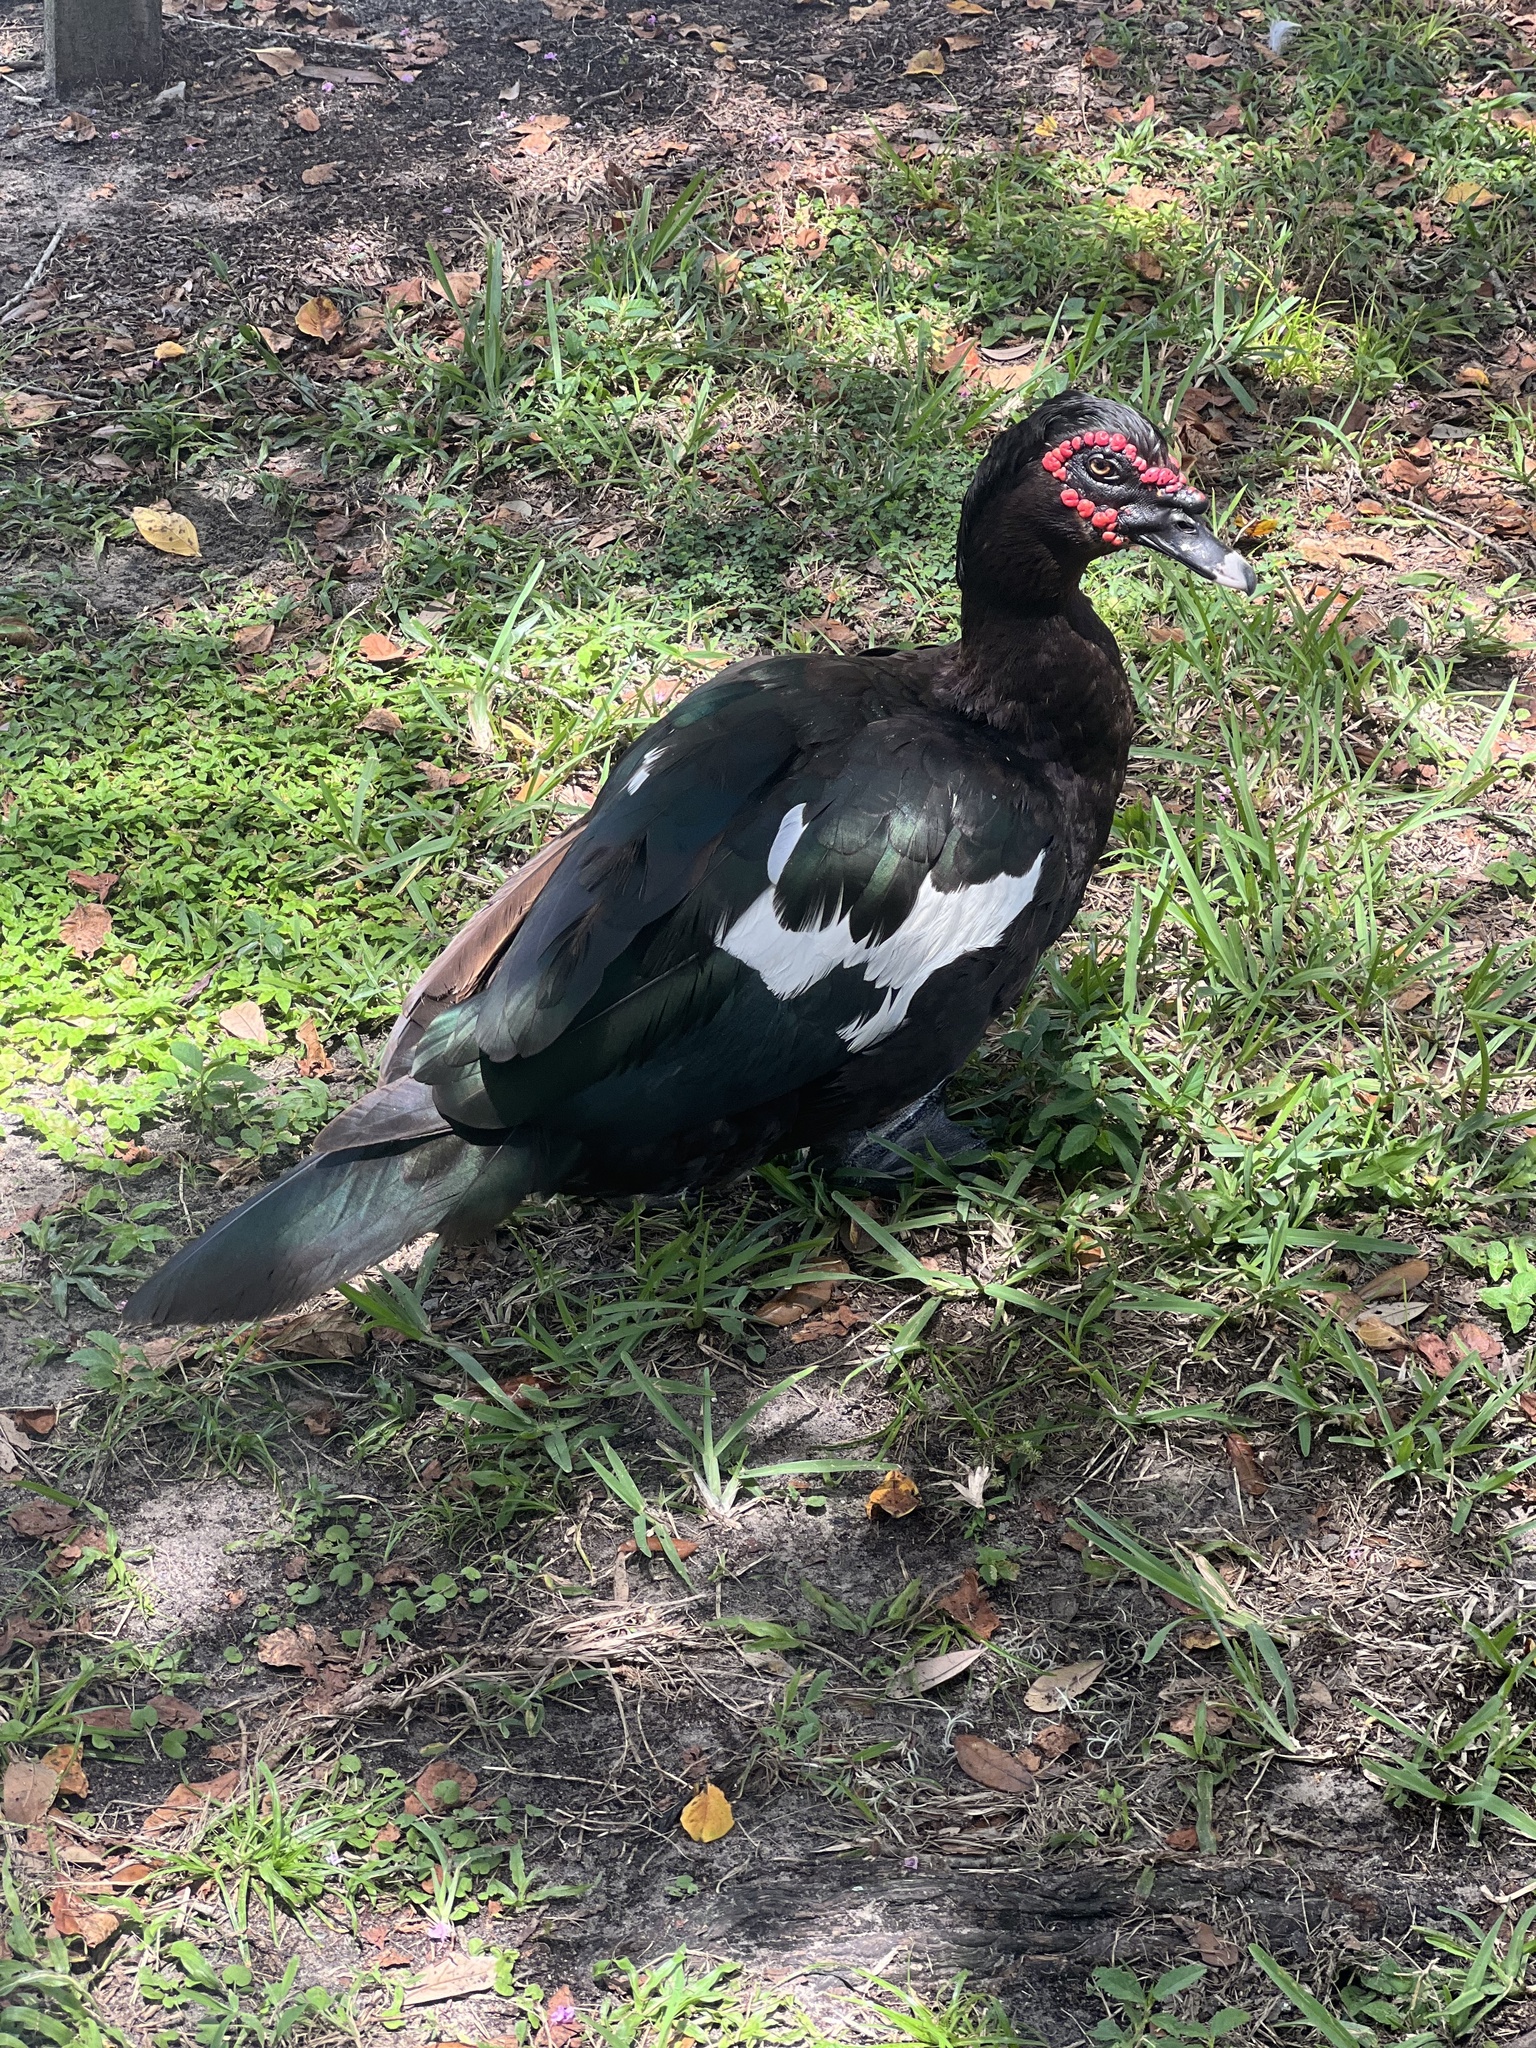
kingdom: Animalia
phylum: Chordata
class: Aves
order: Anseriformes
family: Anatidae
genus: Cairina
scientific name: Cairina moschata
